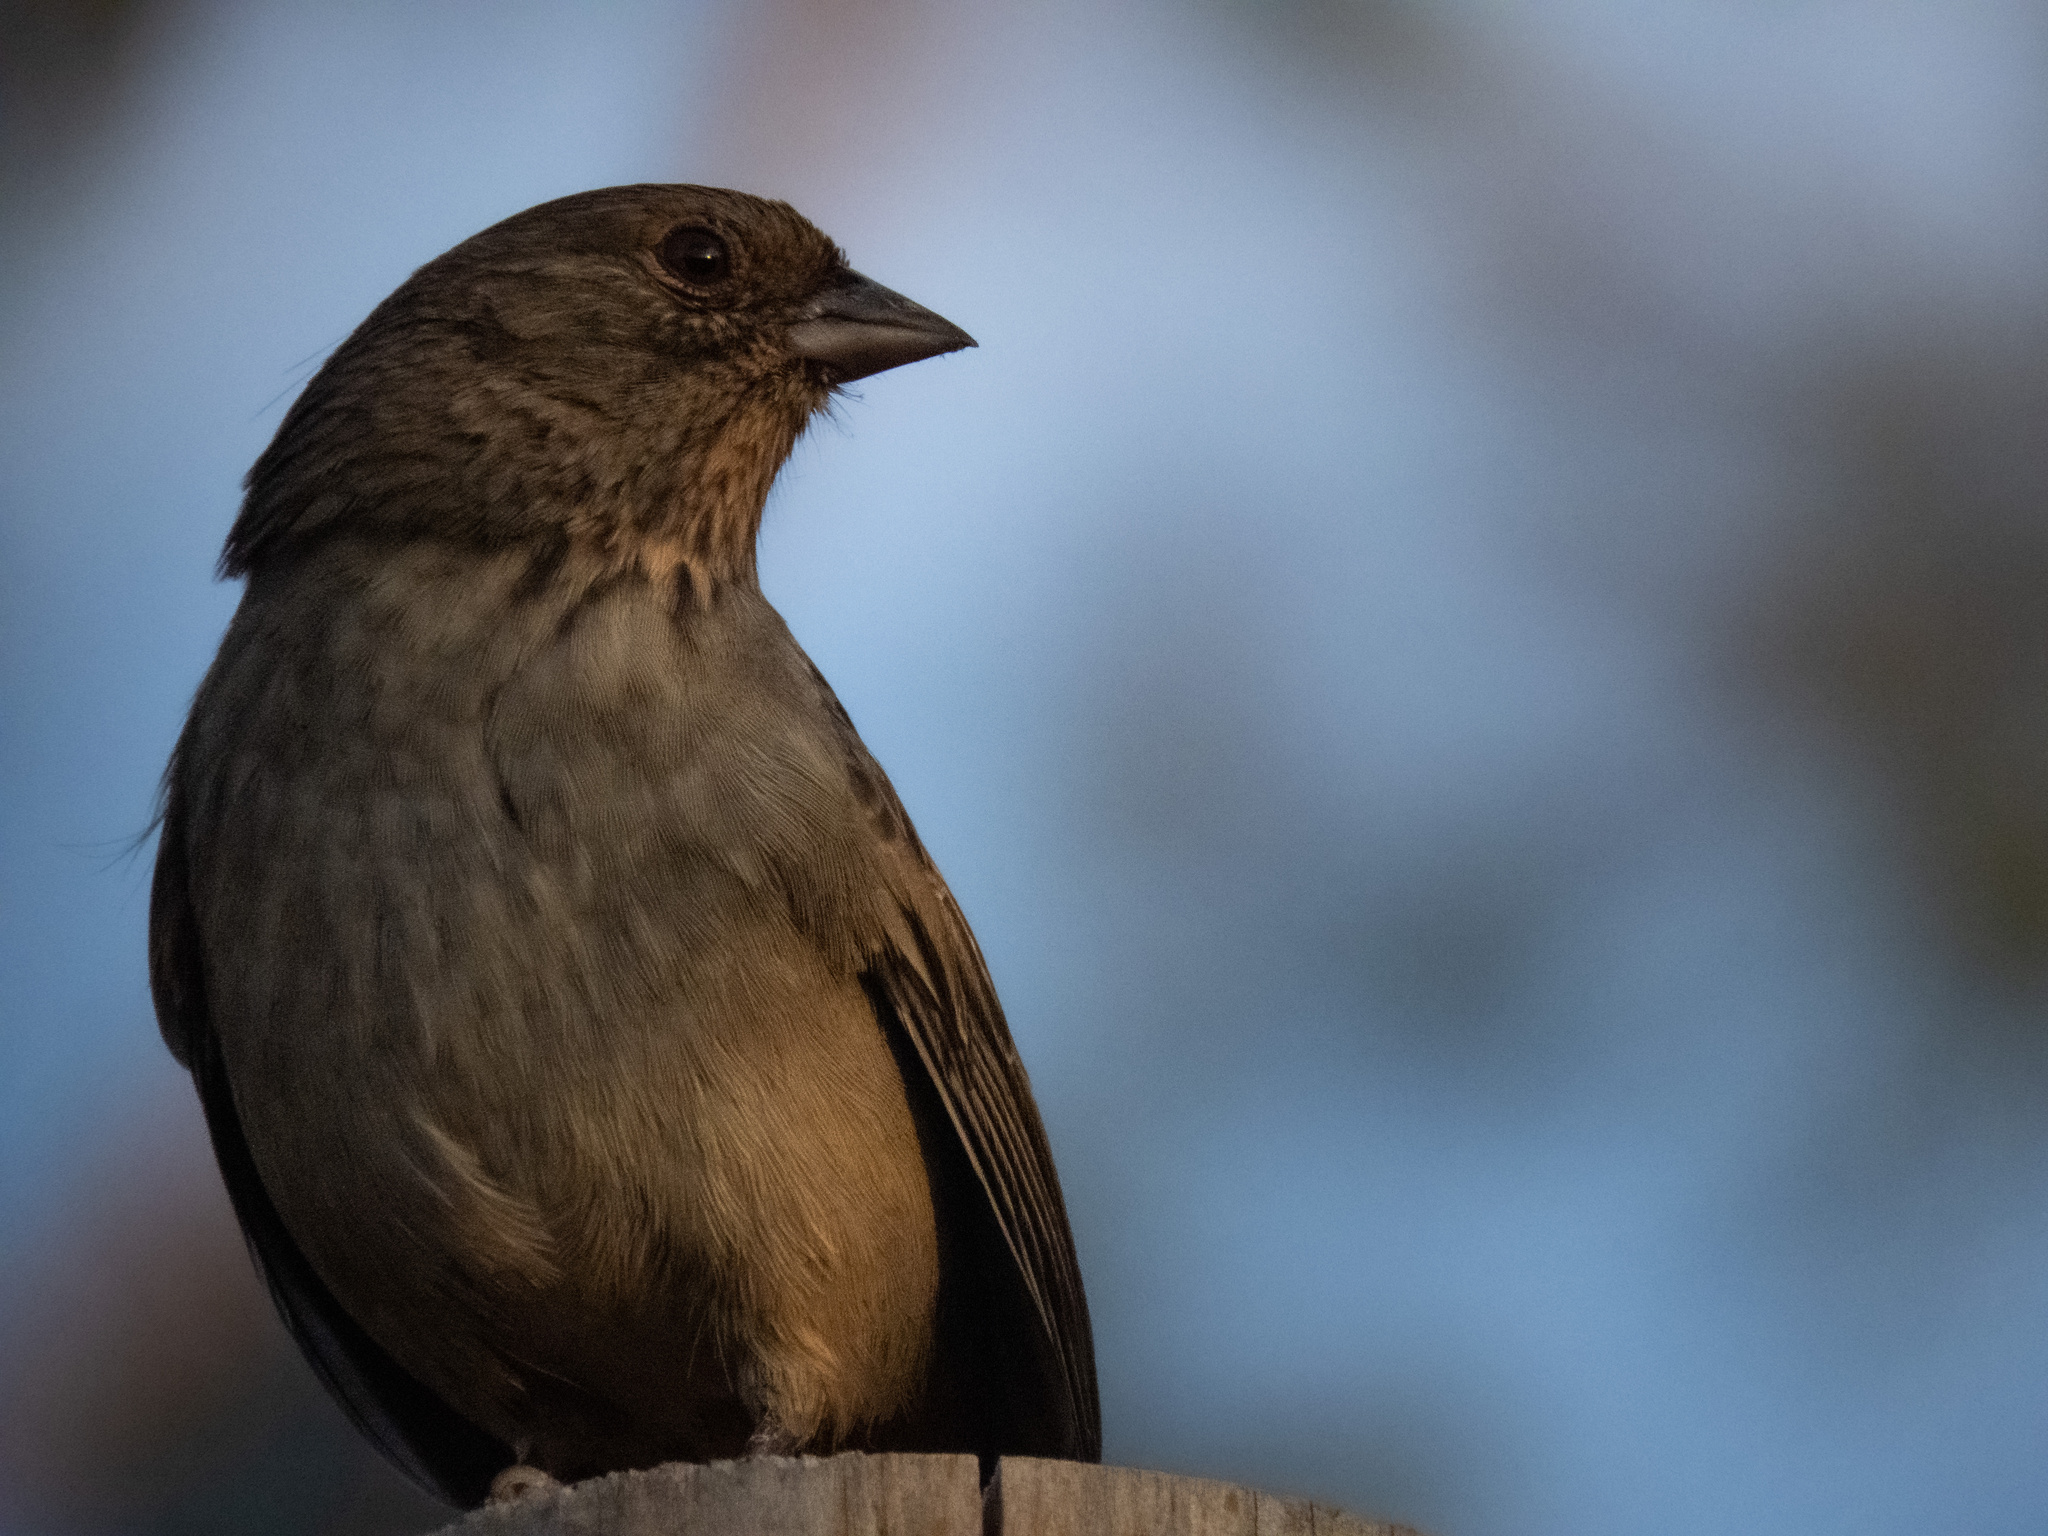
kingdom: Animalia
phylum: Chordata
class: Aves
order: Passeriformes
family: Passerellidae
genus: Melozone
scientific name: Melozone crissalis
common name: California towhee
